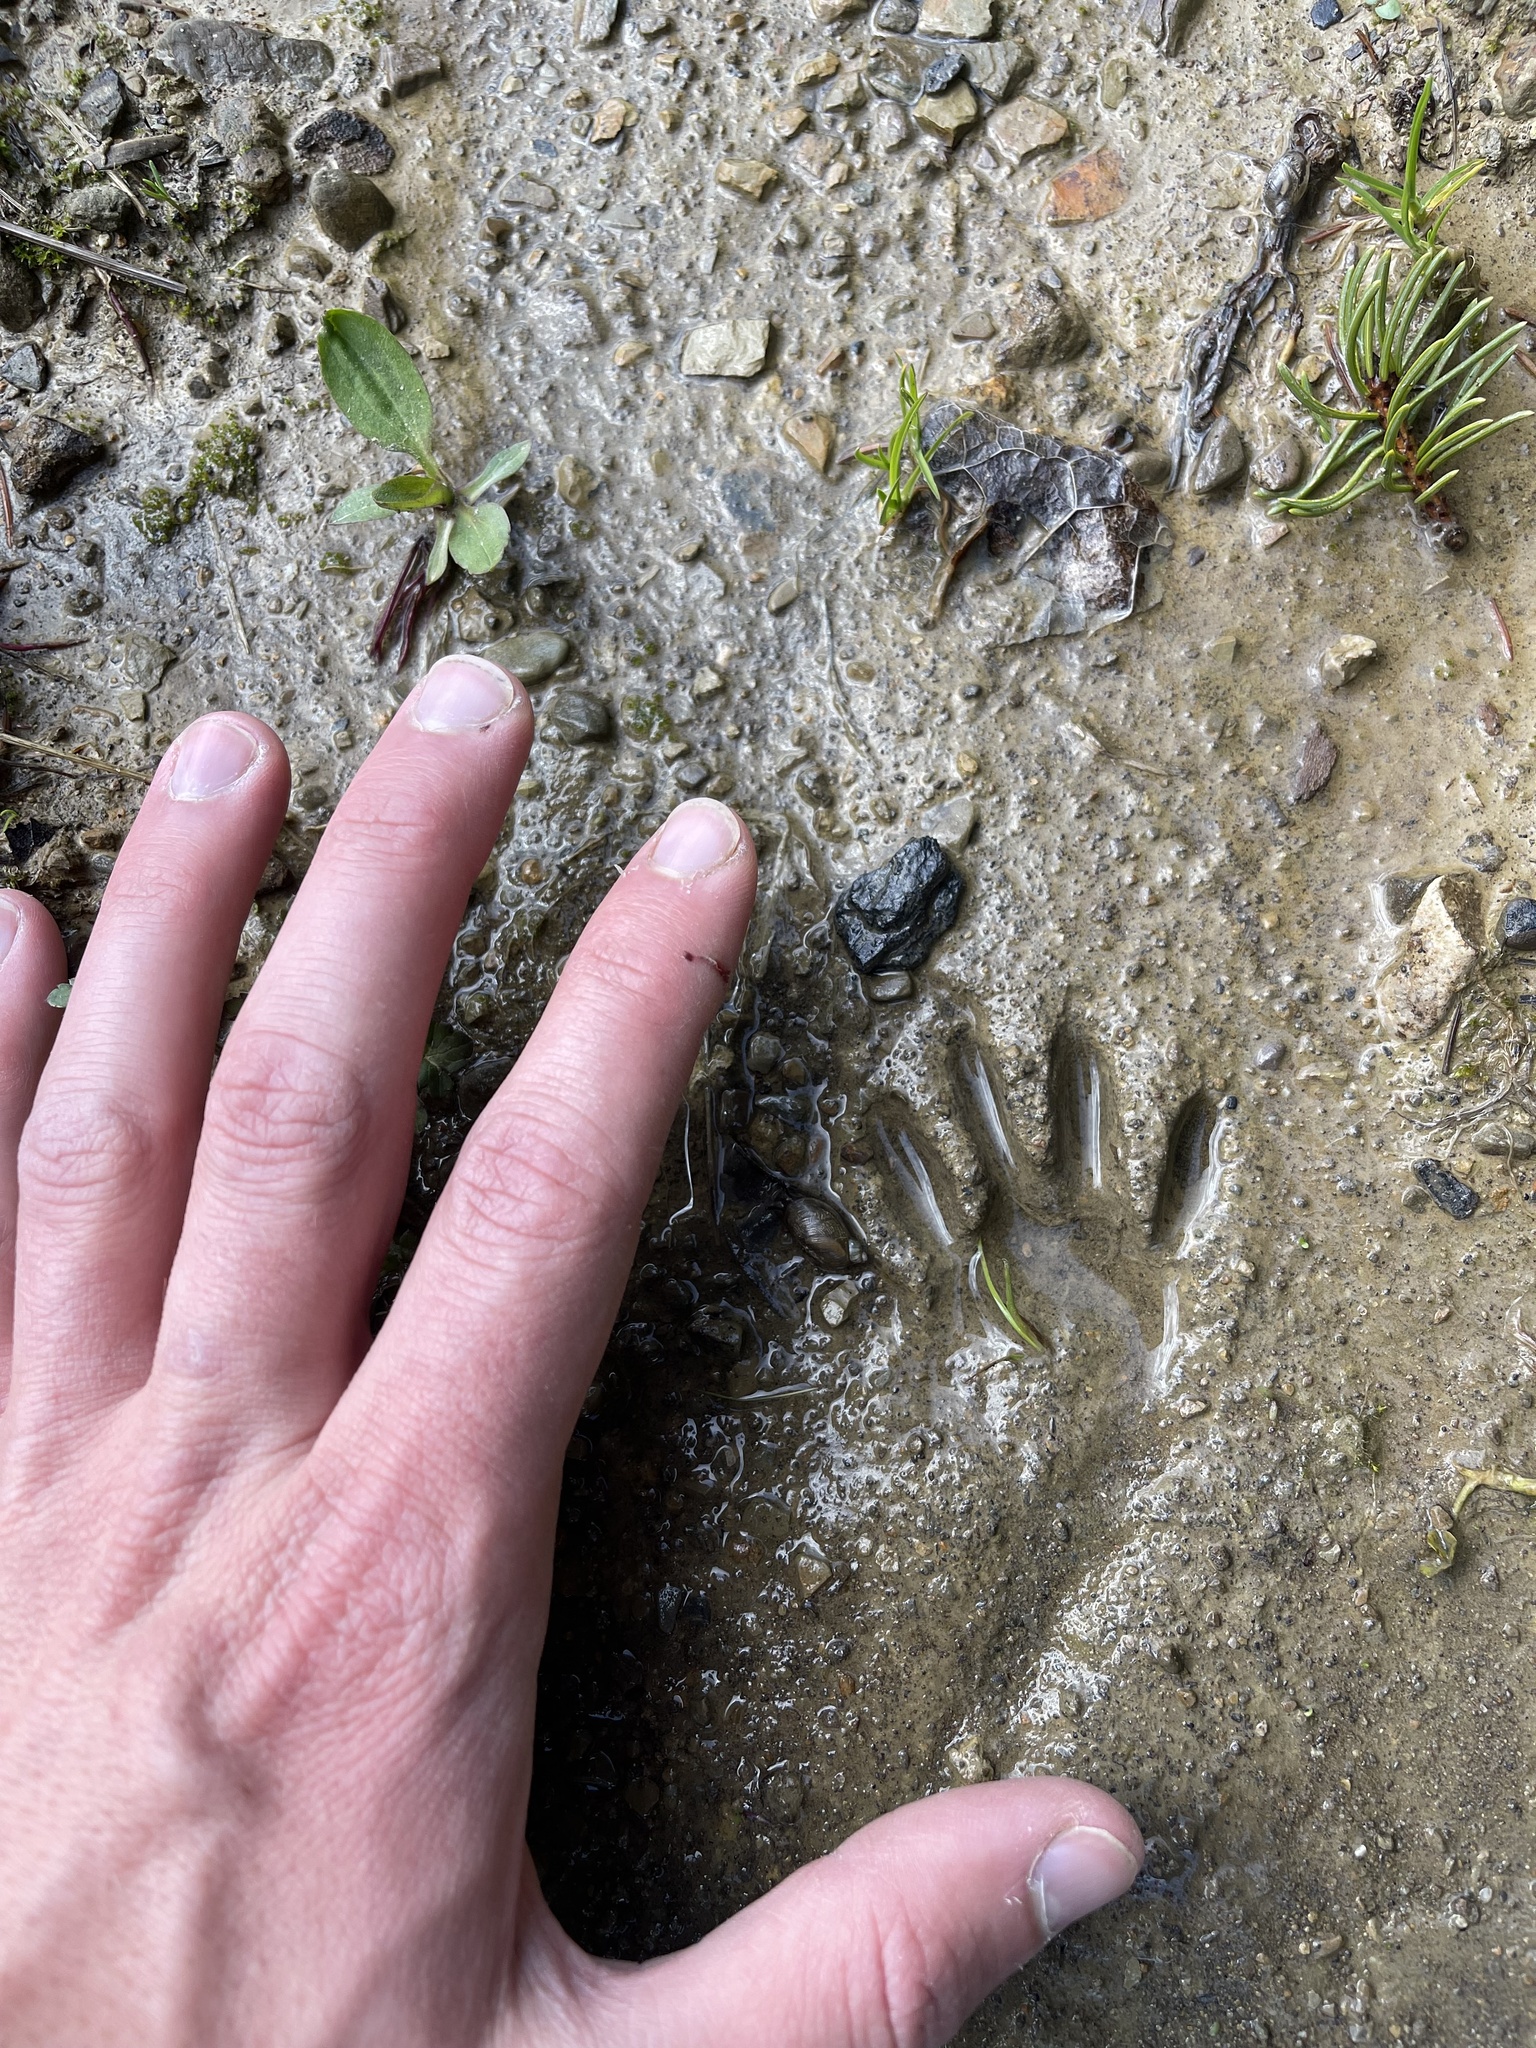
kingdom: Animalia
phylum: Chordata
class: Mammalia
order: Carnivora
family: Procyonidae
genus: Procyon
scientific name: Procyon lotor
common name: Raccoon
